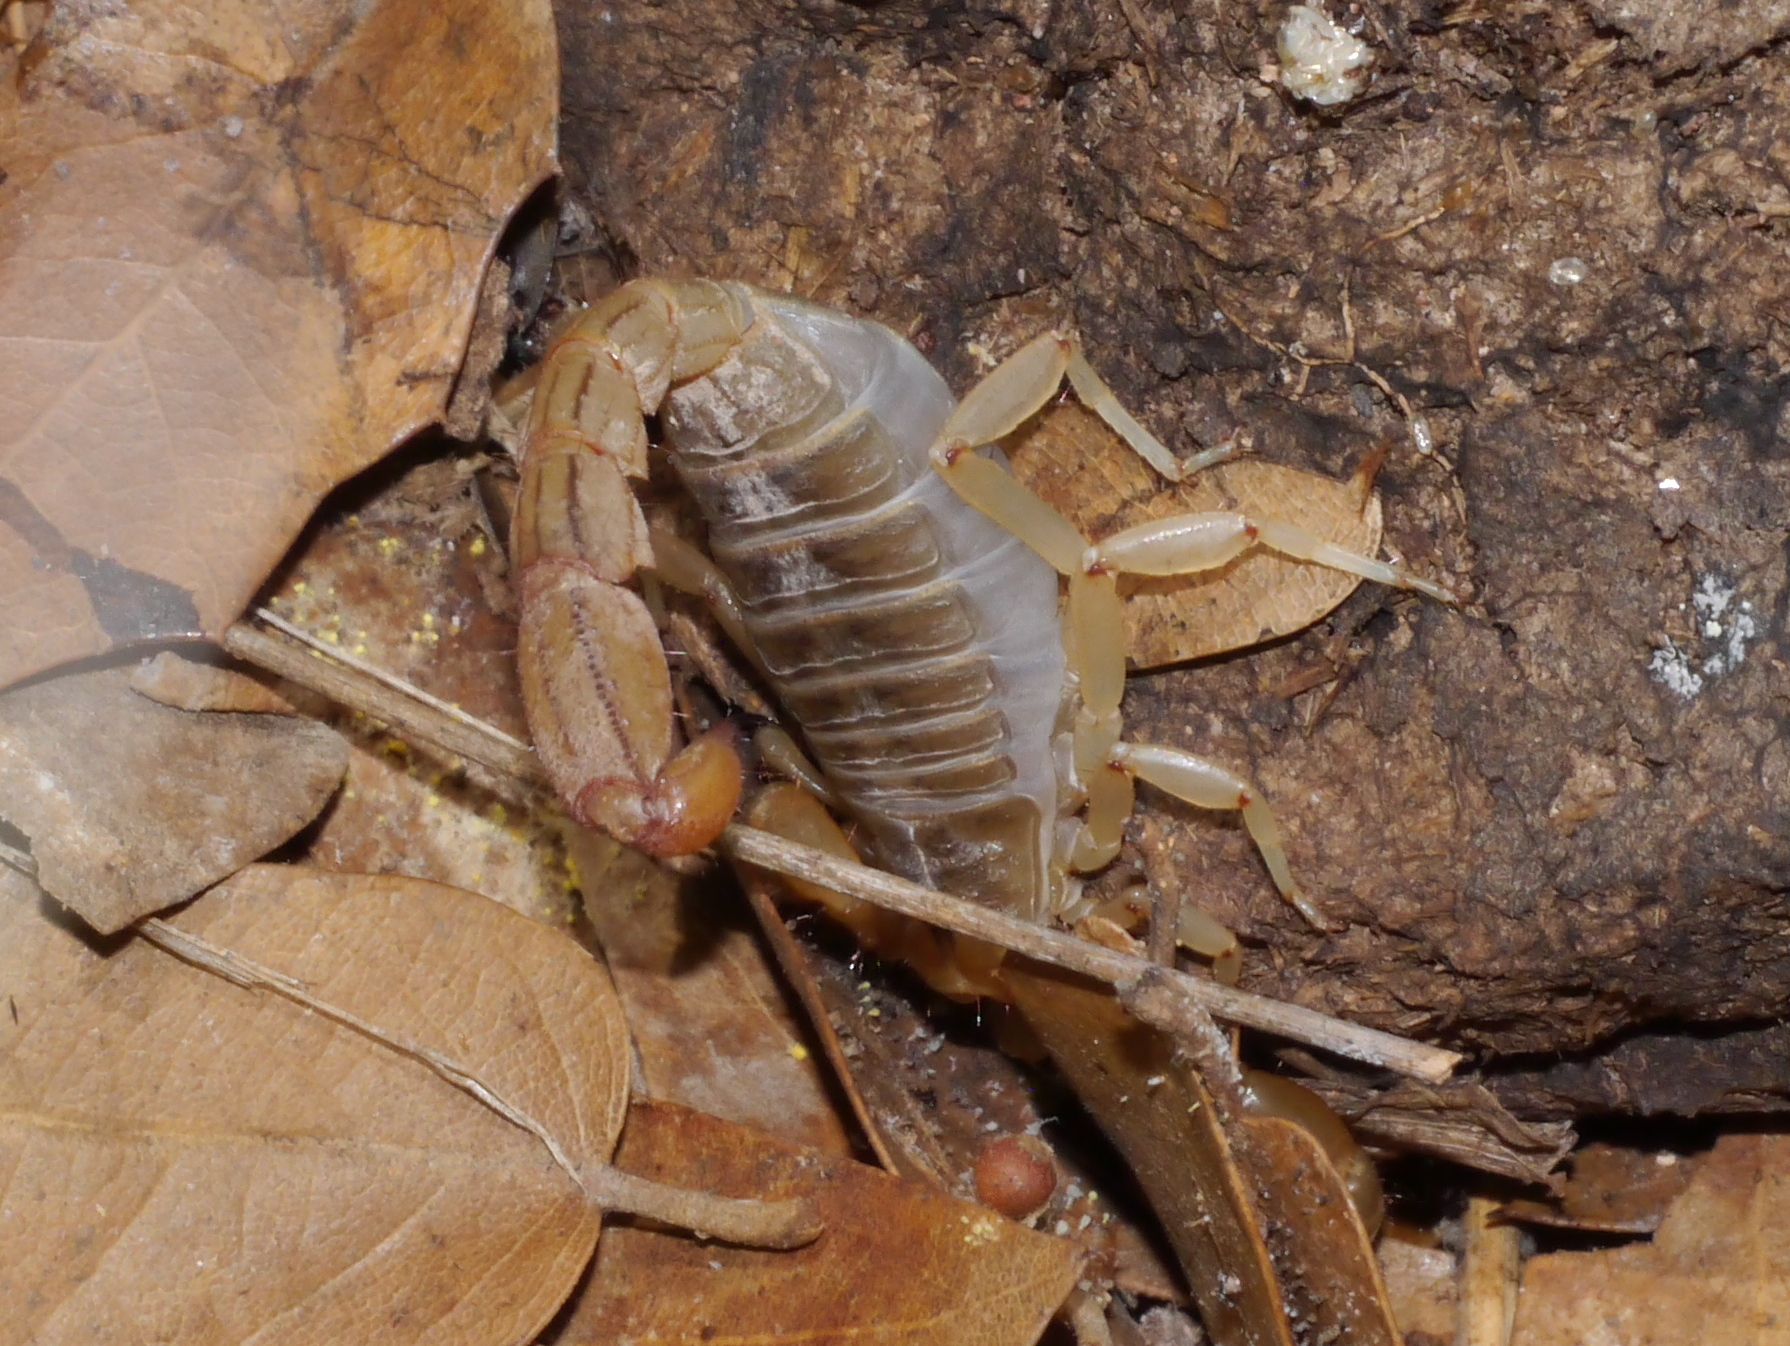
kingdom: Animalia
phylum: Arthropoda
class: Arachnida
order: Scorpiones
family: Vaejovidae
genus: Paravaejovis
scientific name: Paravaejovis spinigerus
